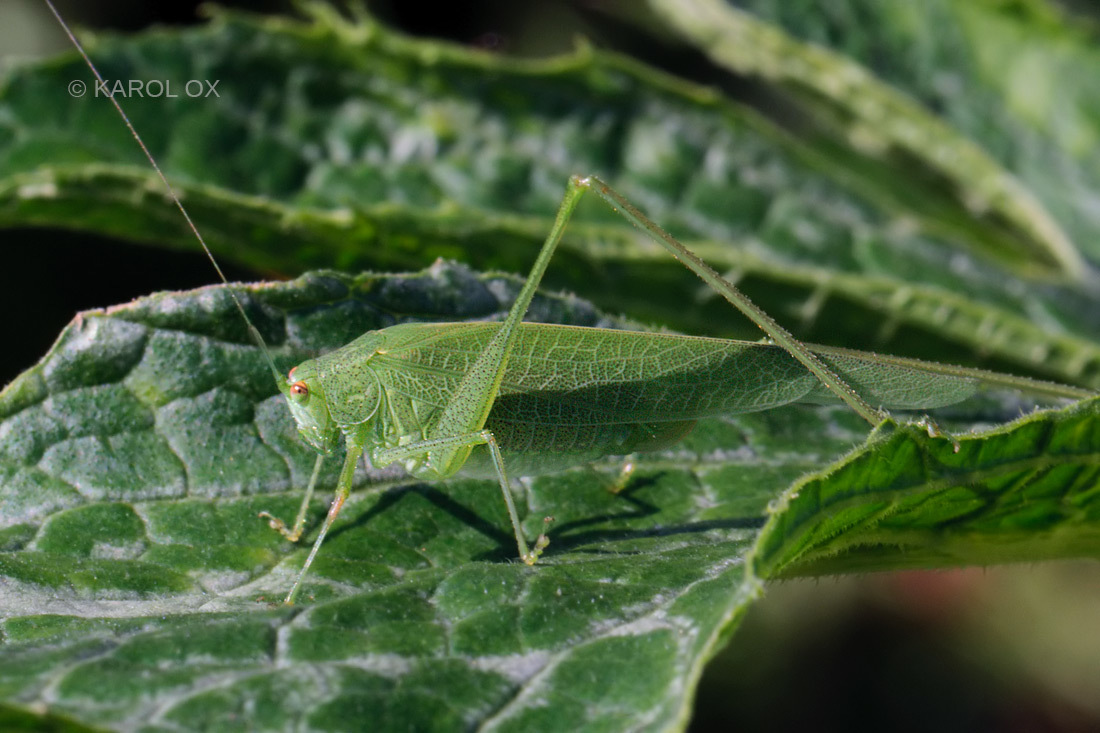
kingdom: Animalia
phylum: Arthropoda
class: Insecta
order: Orthoptera
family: Tettigoniidae
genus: Phaneroptera
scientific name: Phaneroptera nana
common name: Southern sickle bush-cricket
